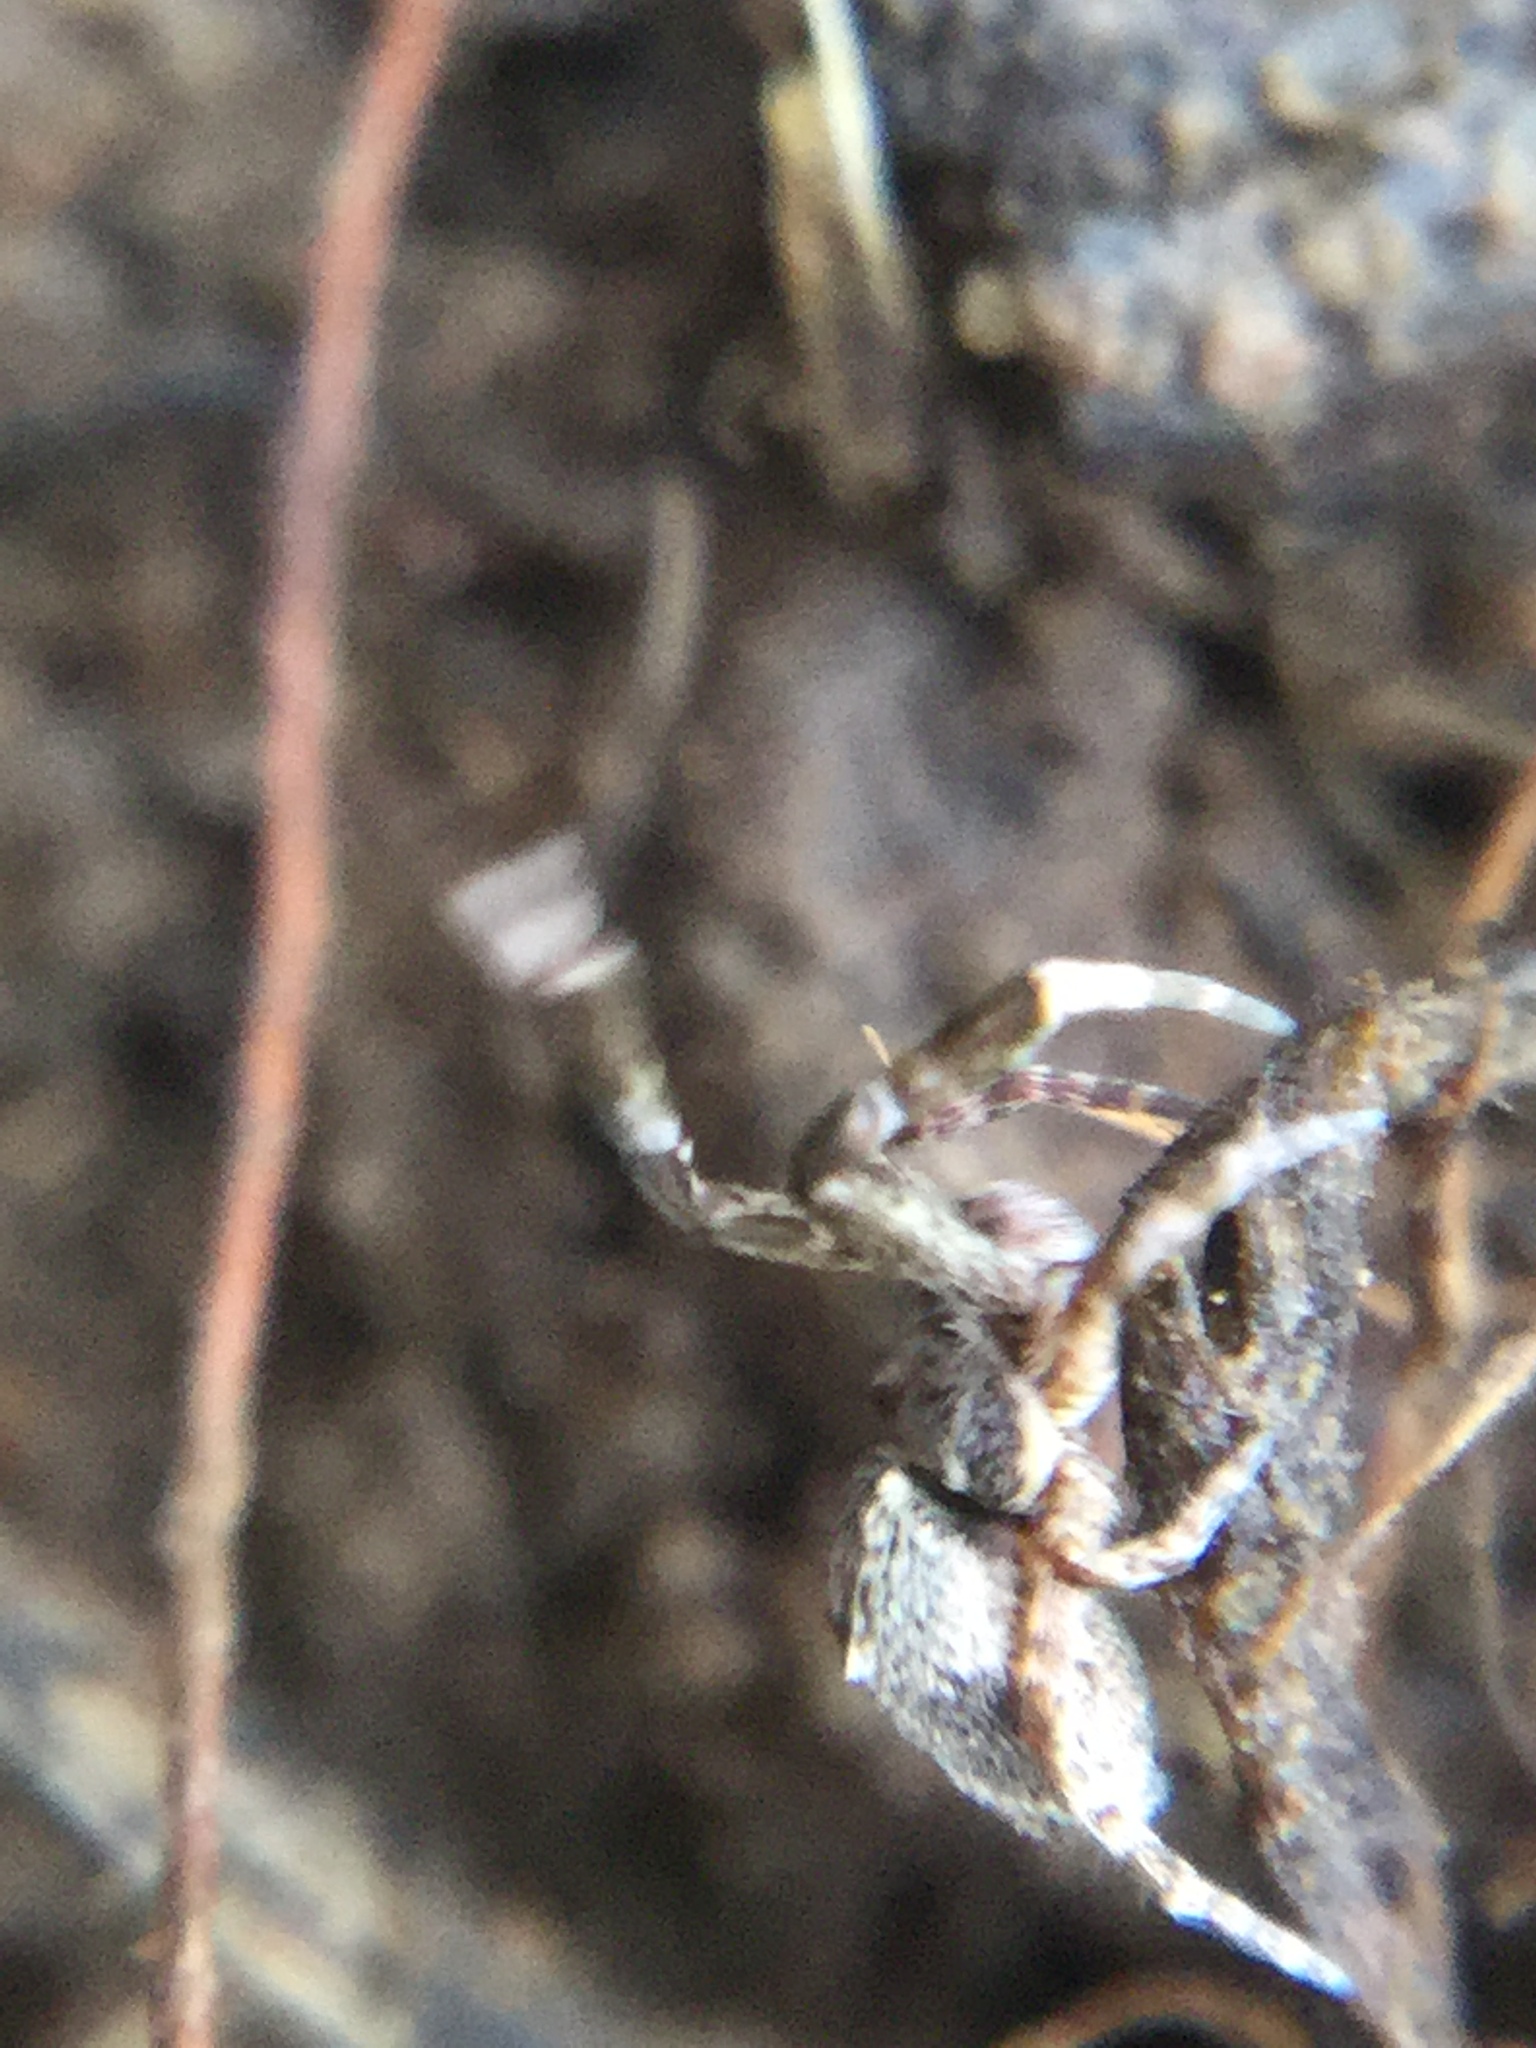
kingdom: Animalia
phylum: Arthropoda
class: Arachnida
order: Araneae
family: Uloboridae
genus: Uloborus
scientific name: Uloborus glomosus
